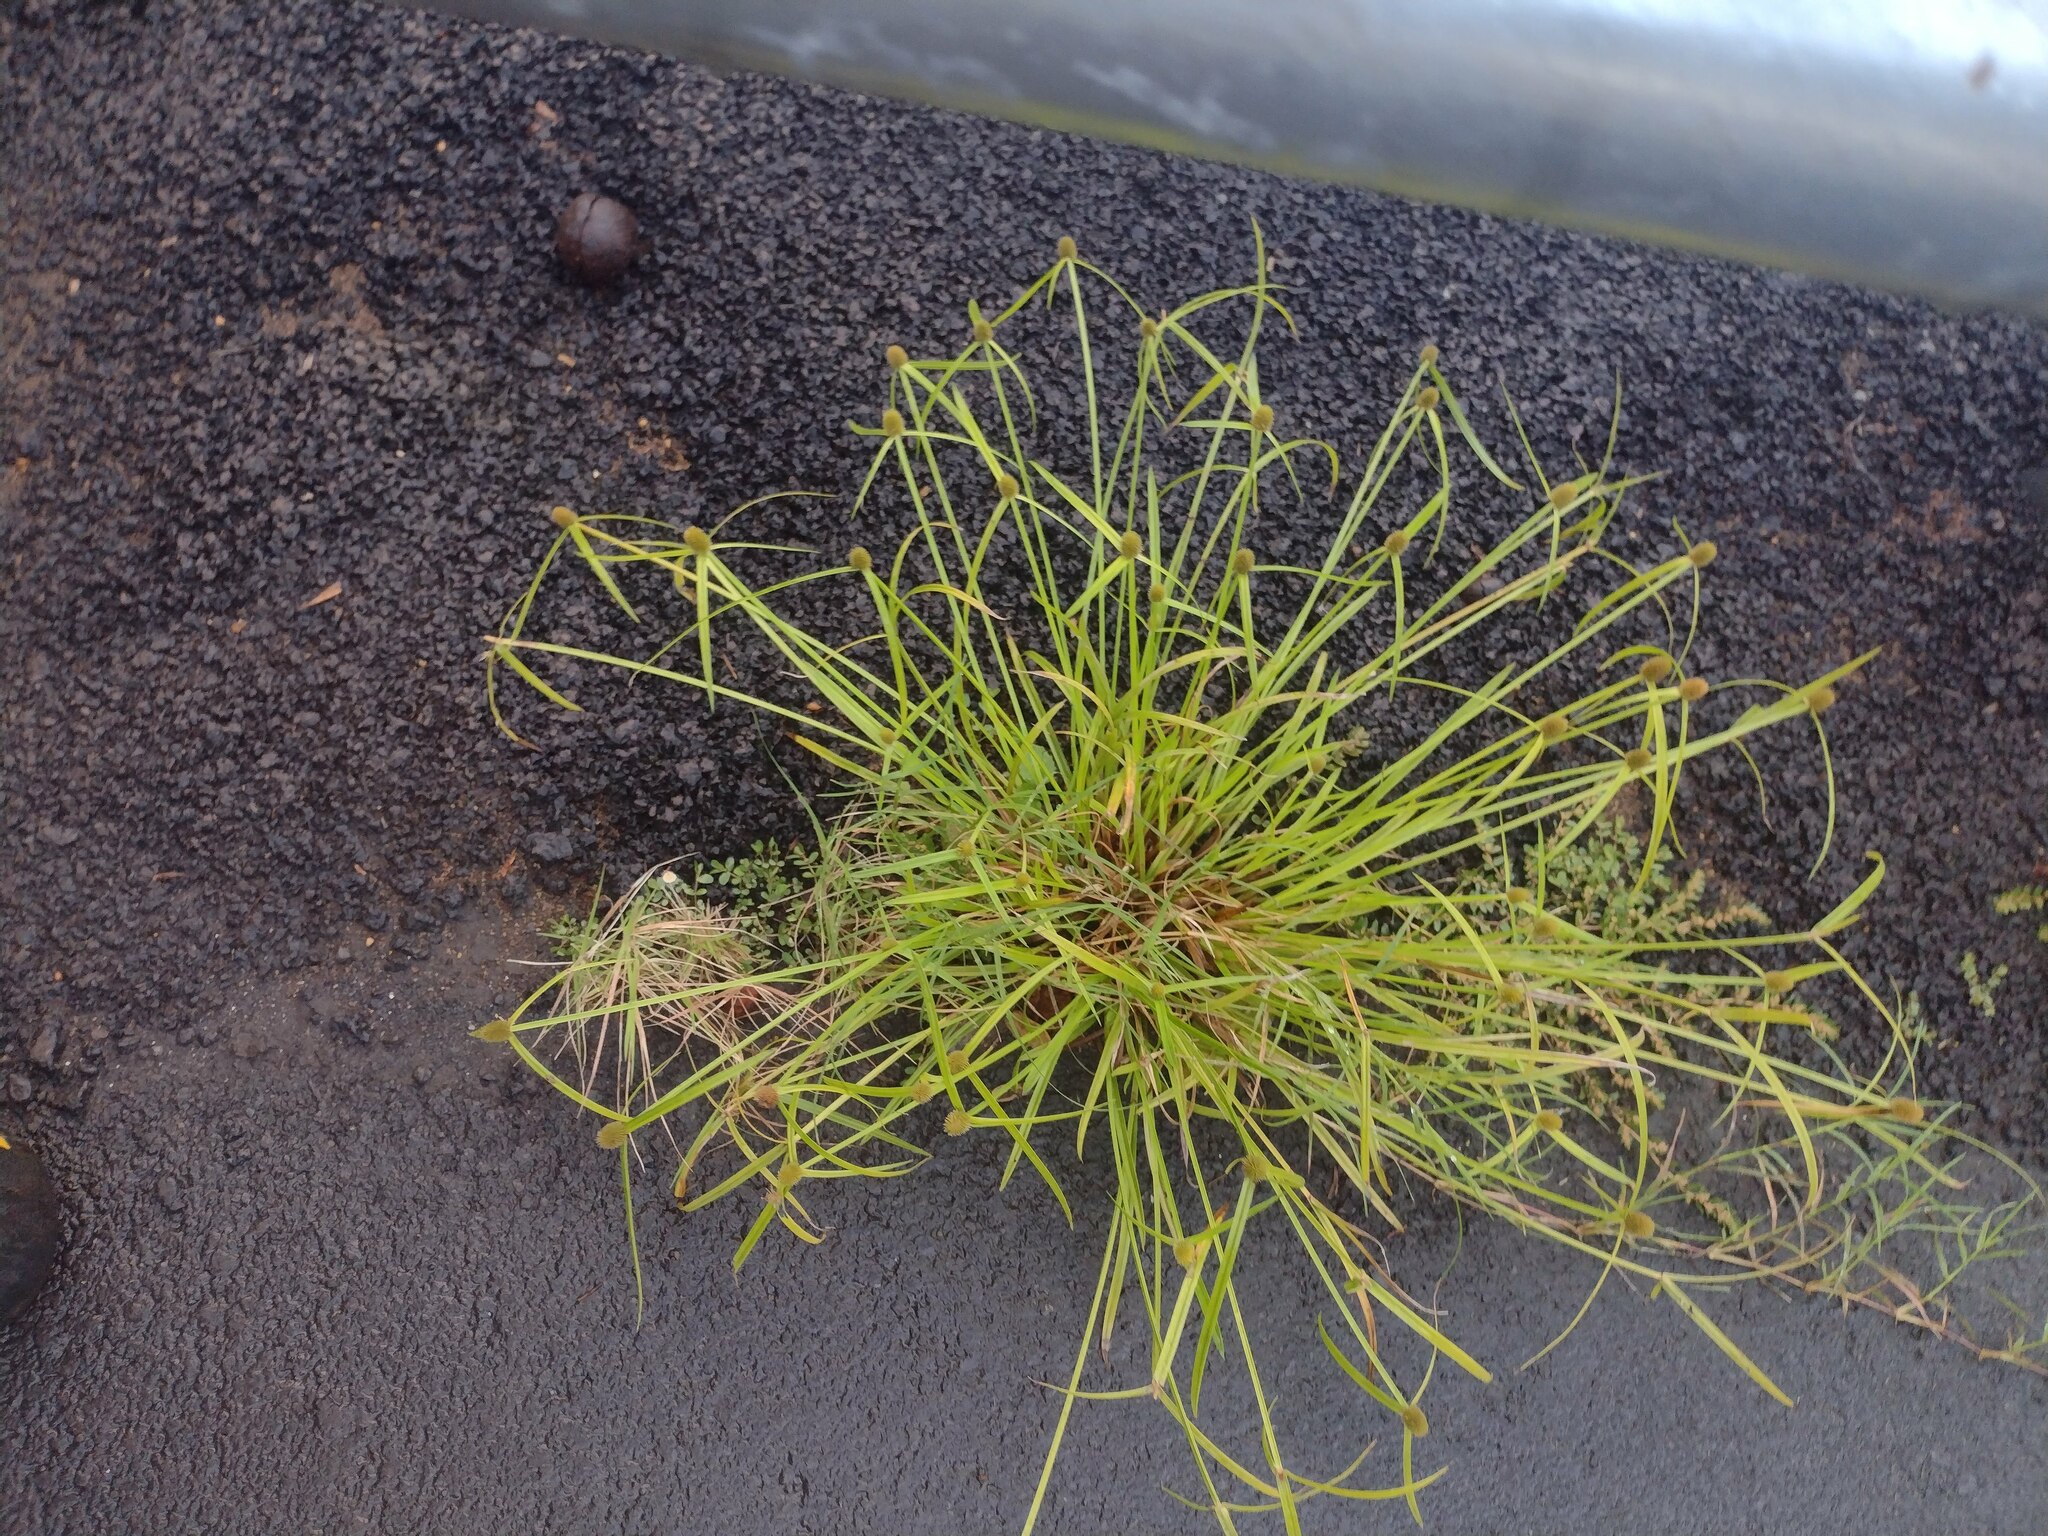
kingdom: Plantae
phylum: Tracheophyta
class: Liliopsida
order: Poales
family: Cyperaceae
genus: Cyperus
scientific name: Cyperus brevifolius
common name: Globe kyllinga
